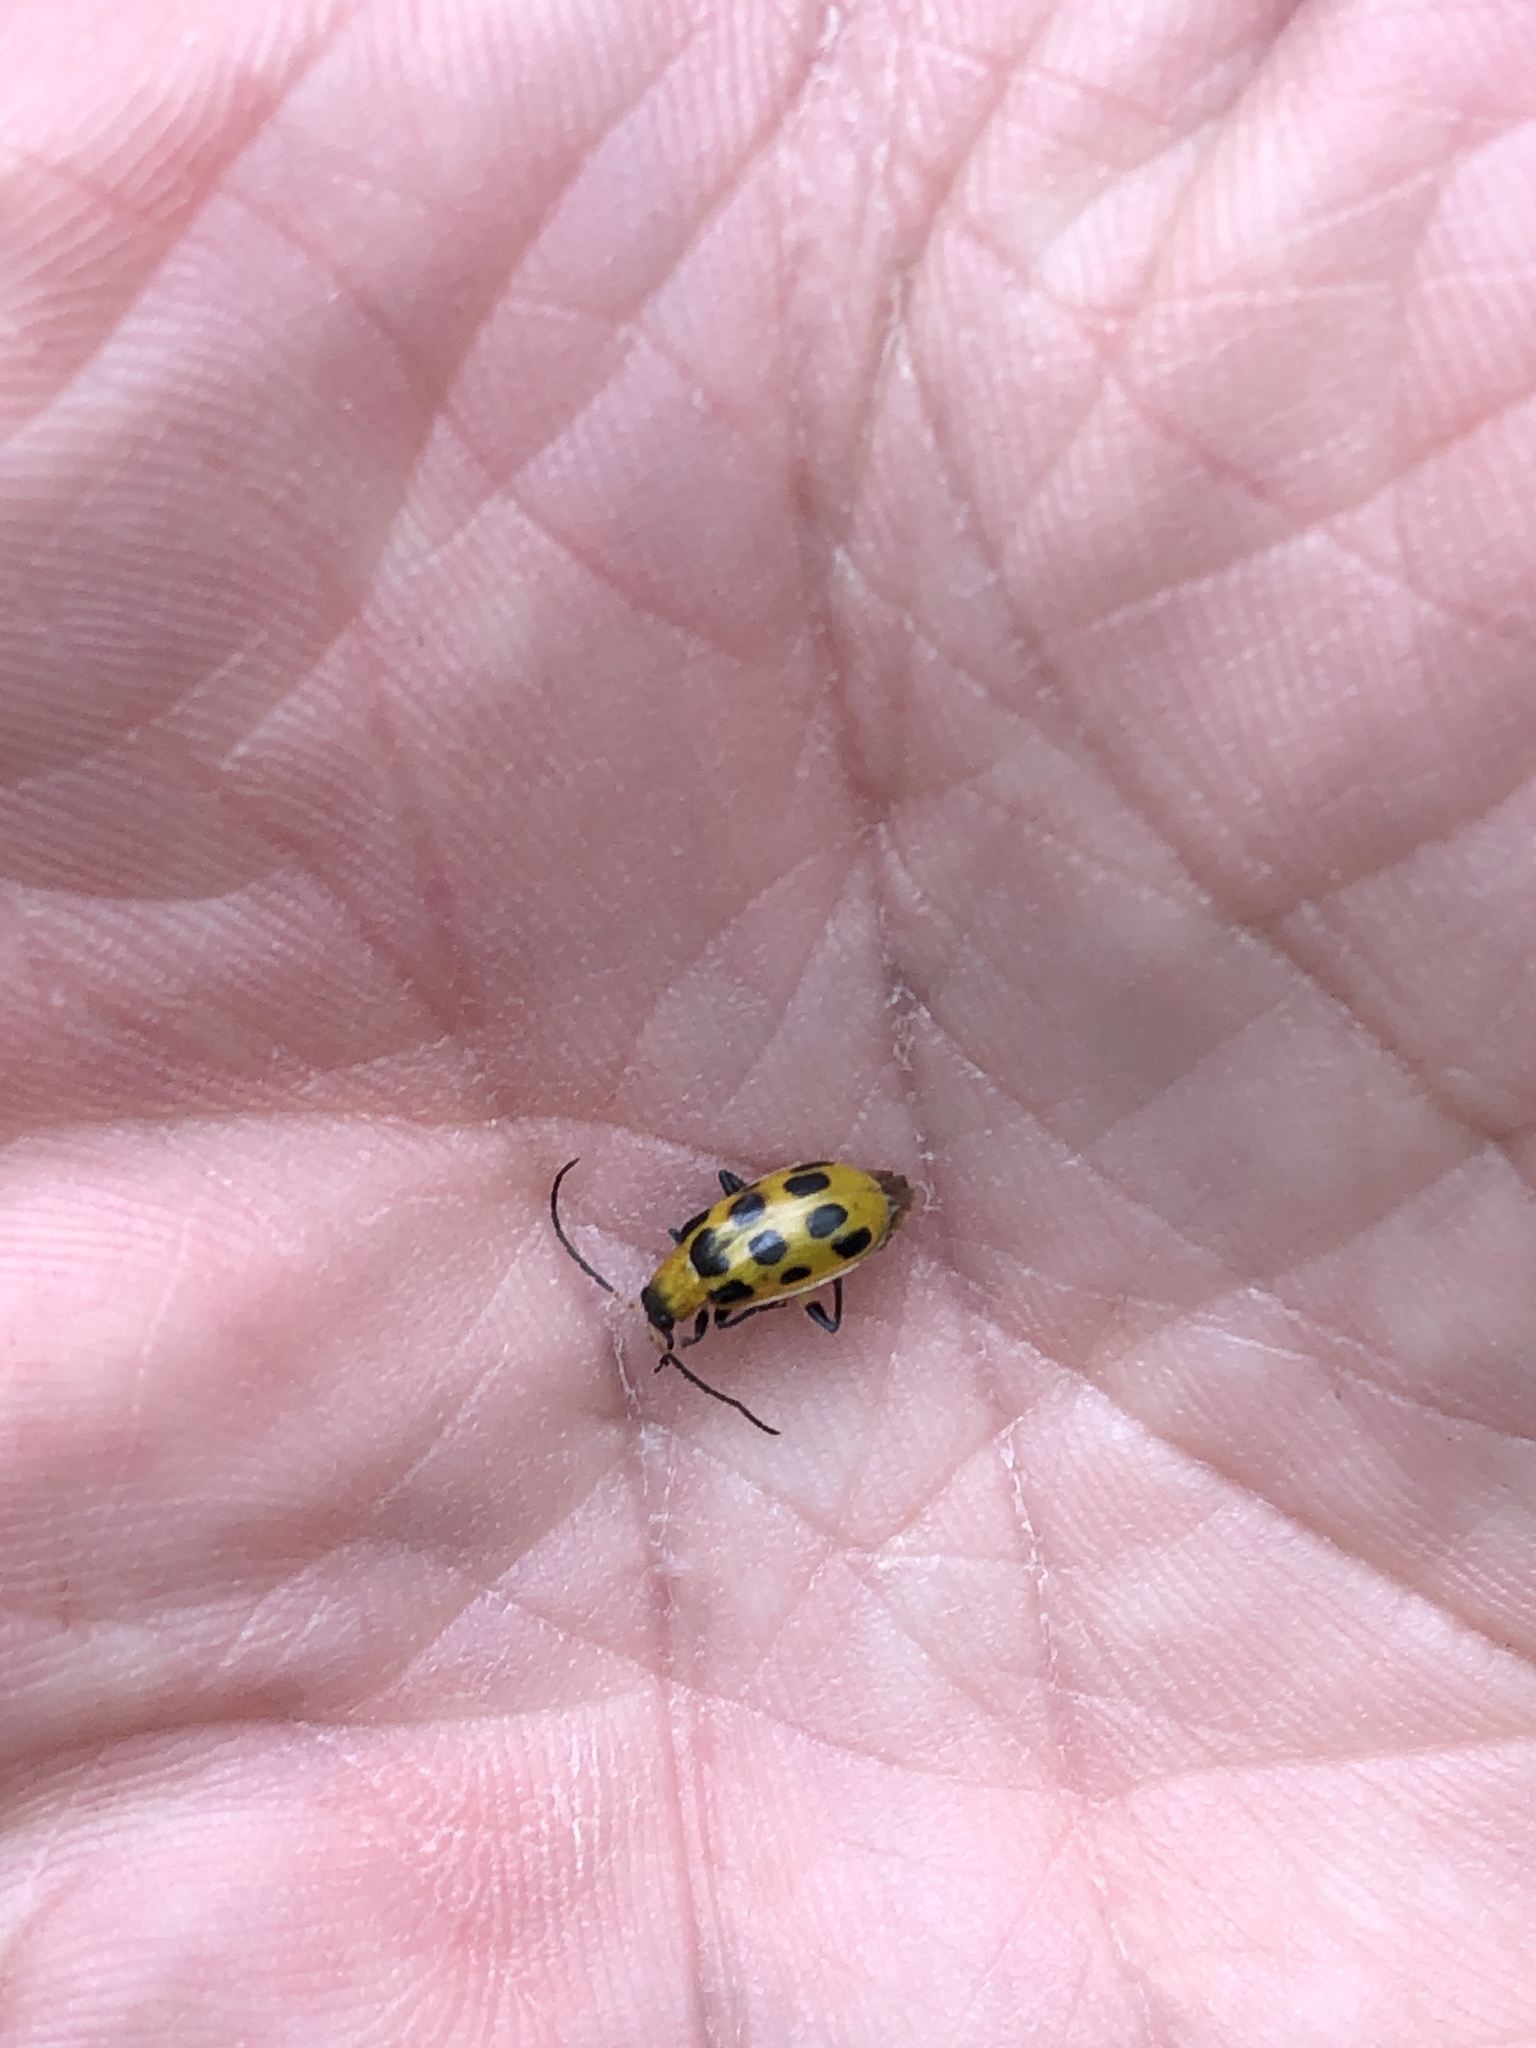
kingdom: Animalia
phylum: Arthropoda
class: Insecta
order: Coleoptera
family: Chrysomelidae
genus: Diabrotica
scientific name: Diabrotica undecimpunctata
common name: Spotted cucumber beetle
